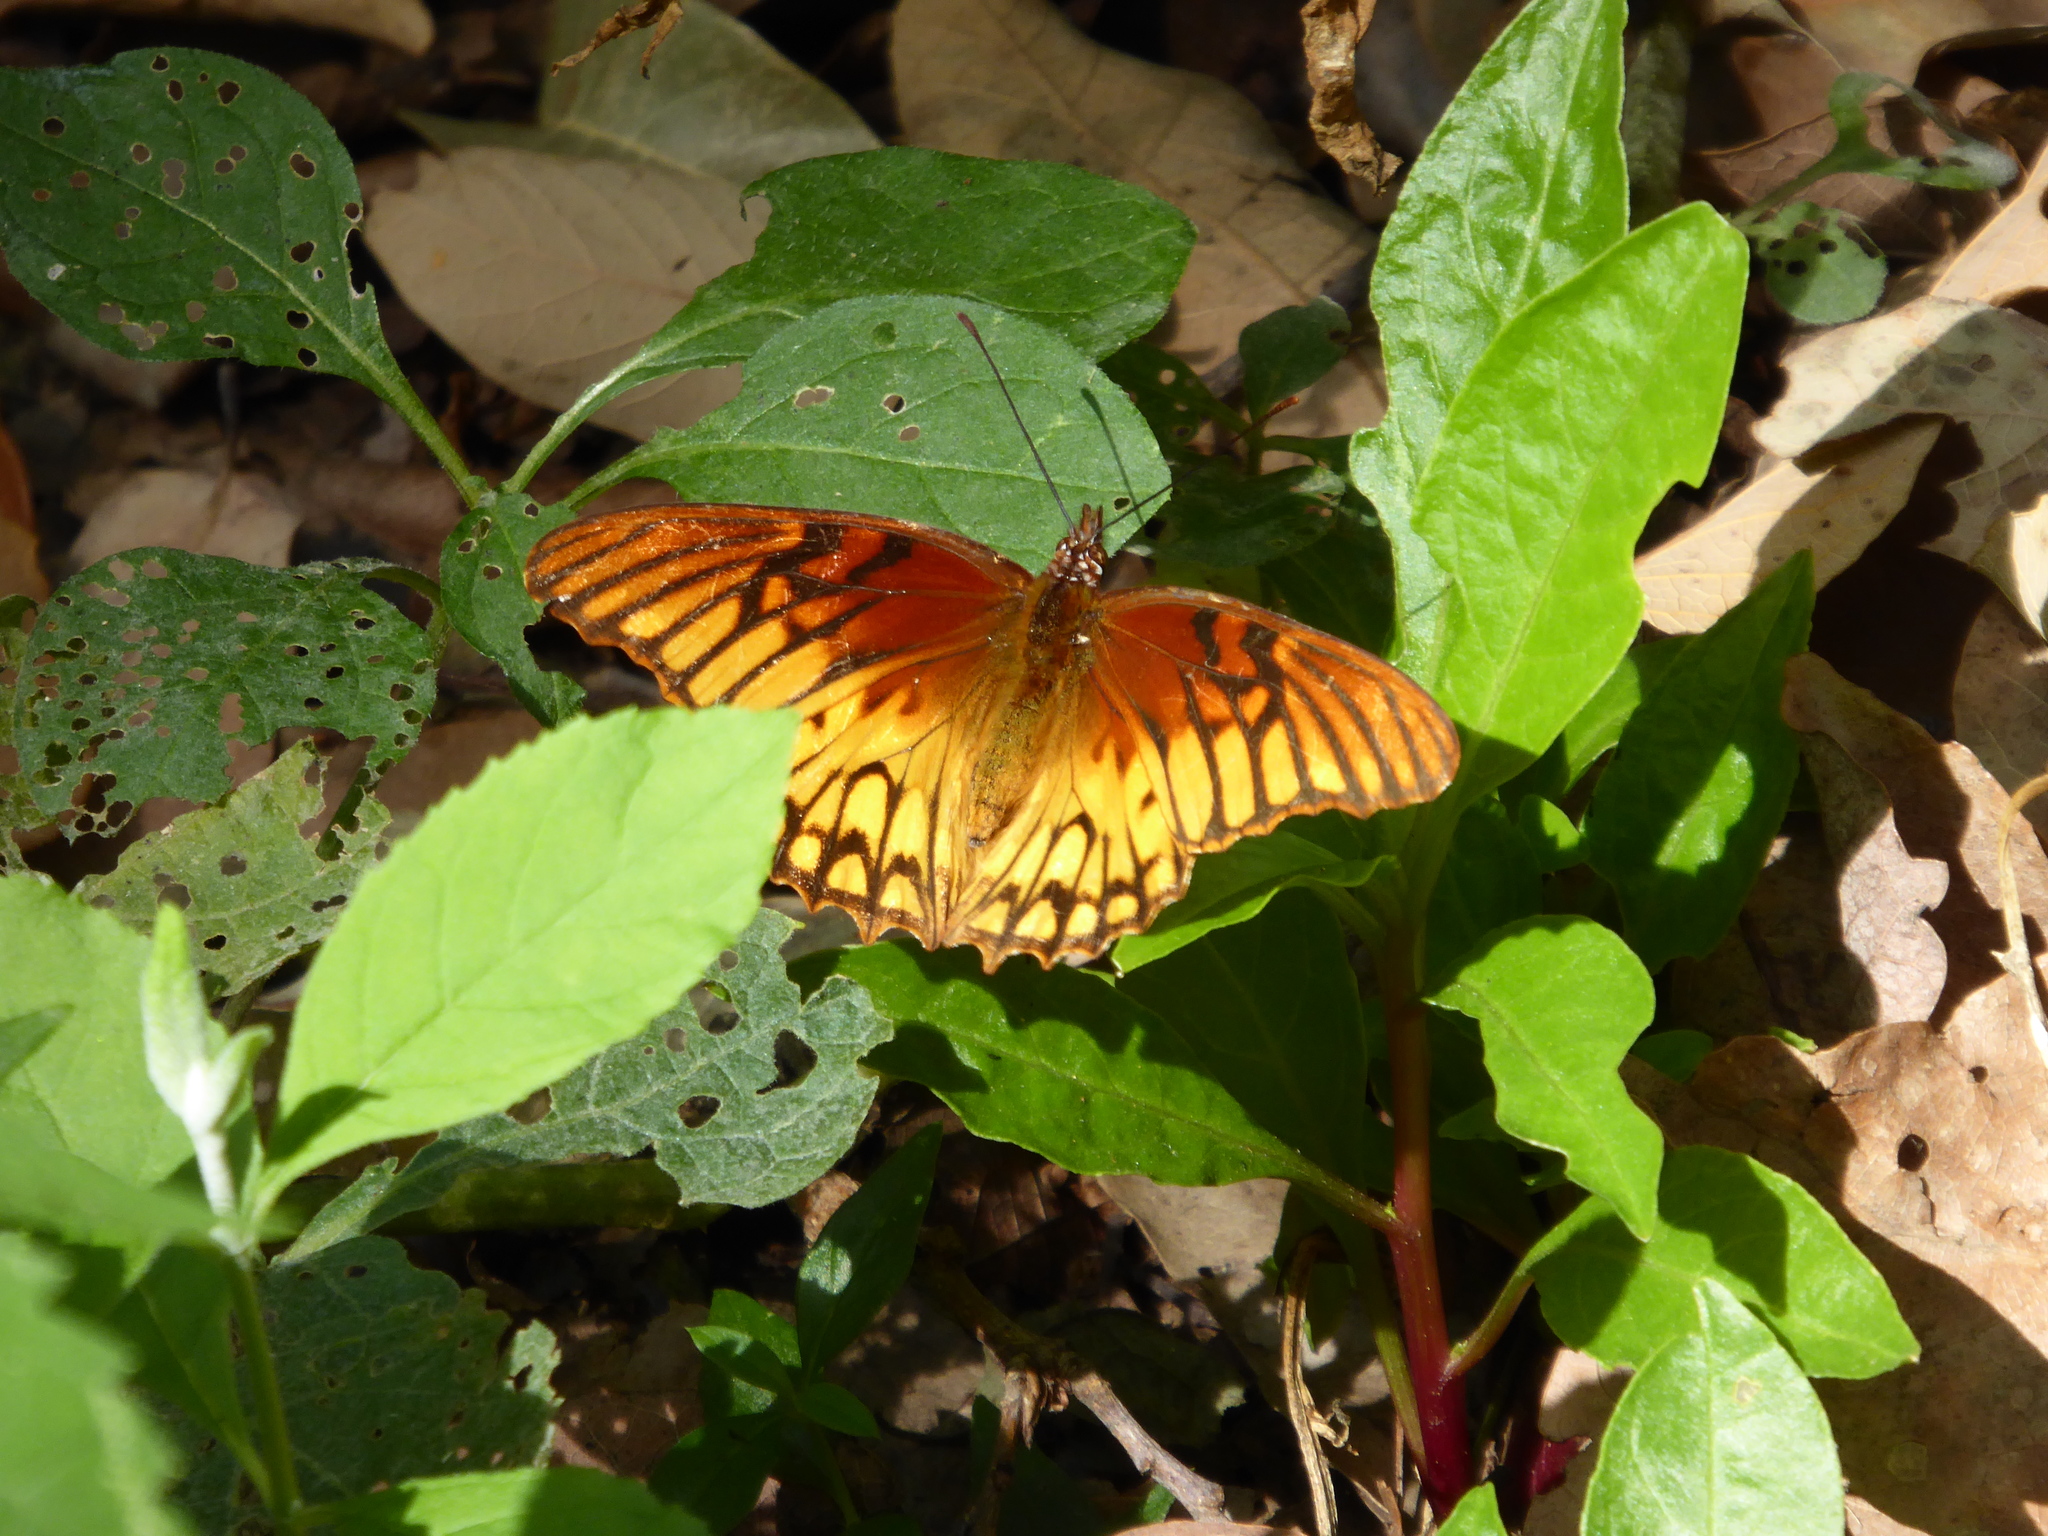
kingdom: Animalia
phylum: Arthropoda
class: Insecta
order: Lepidoptera
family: Nymphalidae
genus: Dione
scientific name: Dione moneta
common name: Mexican silverspot
